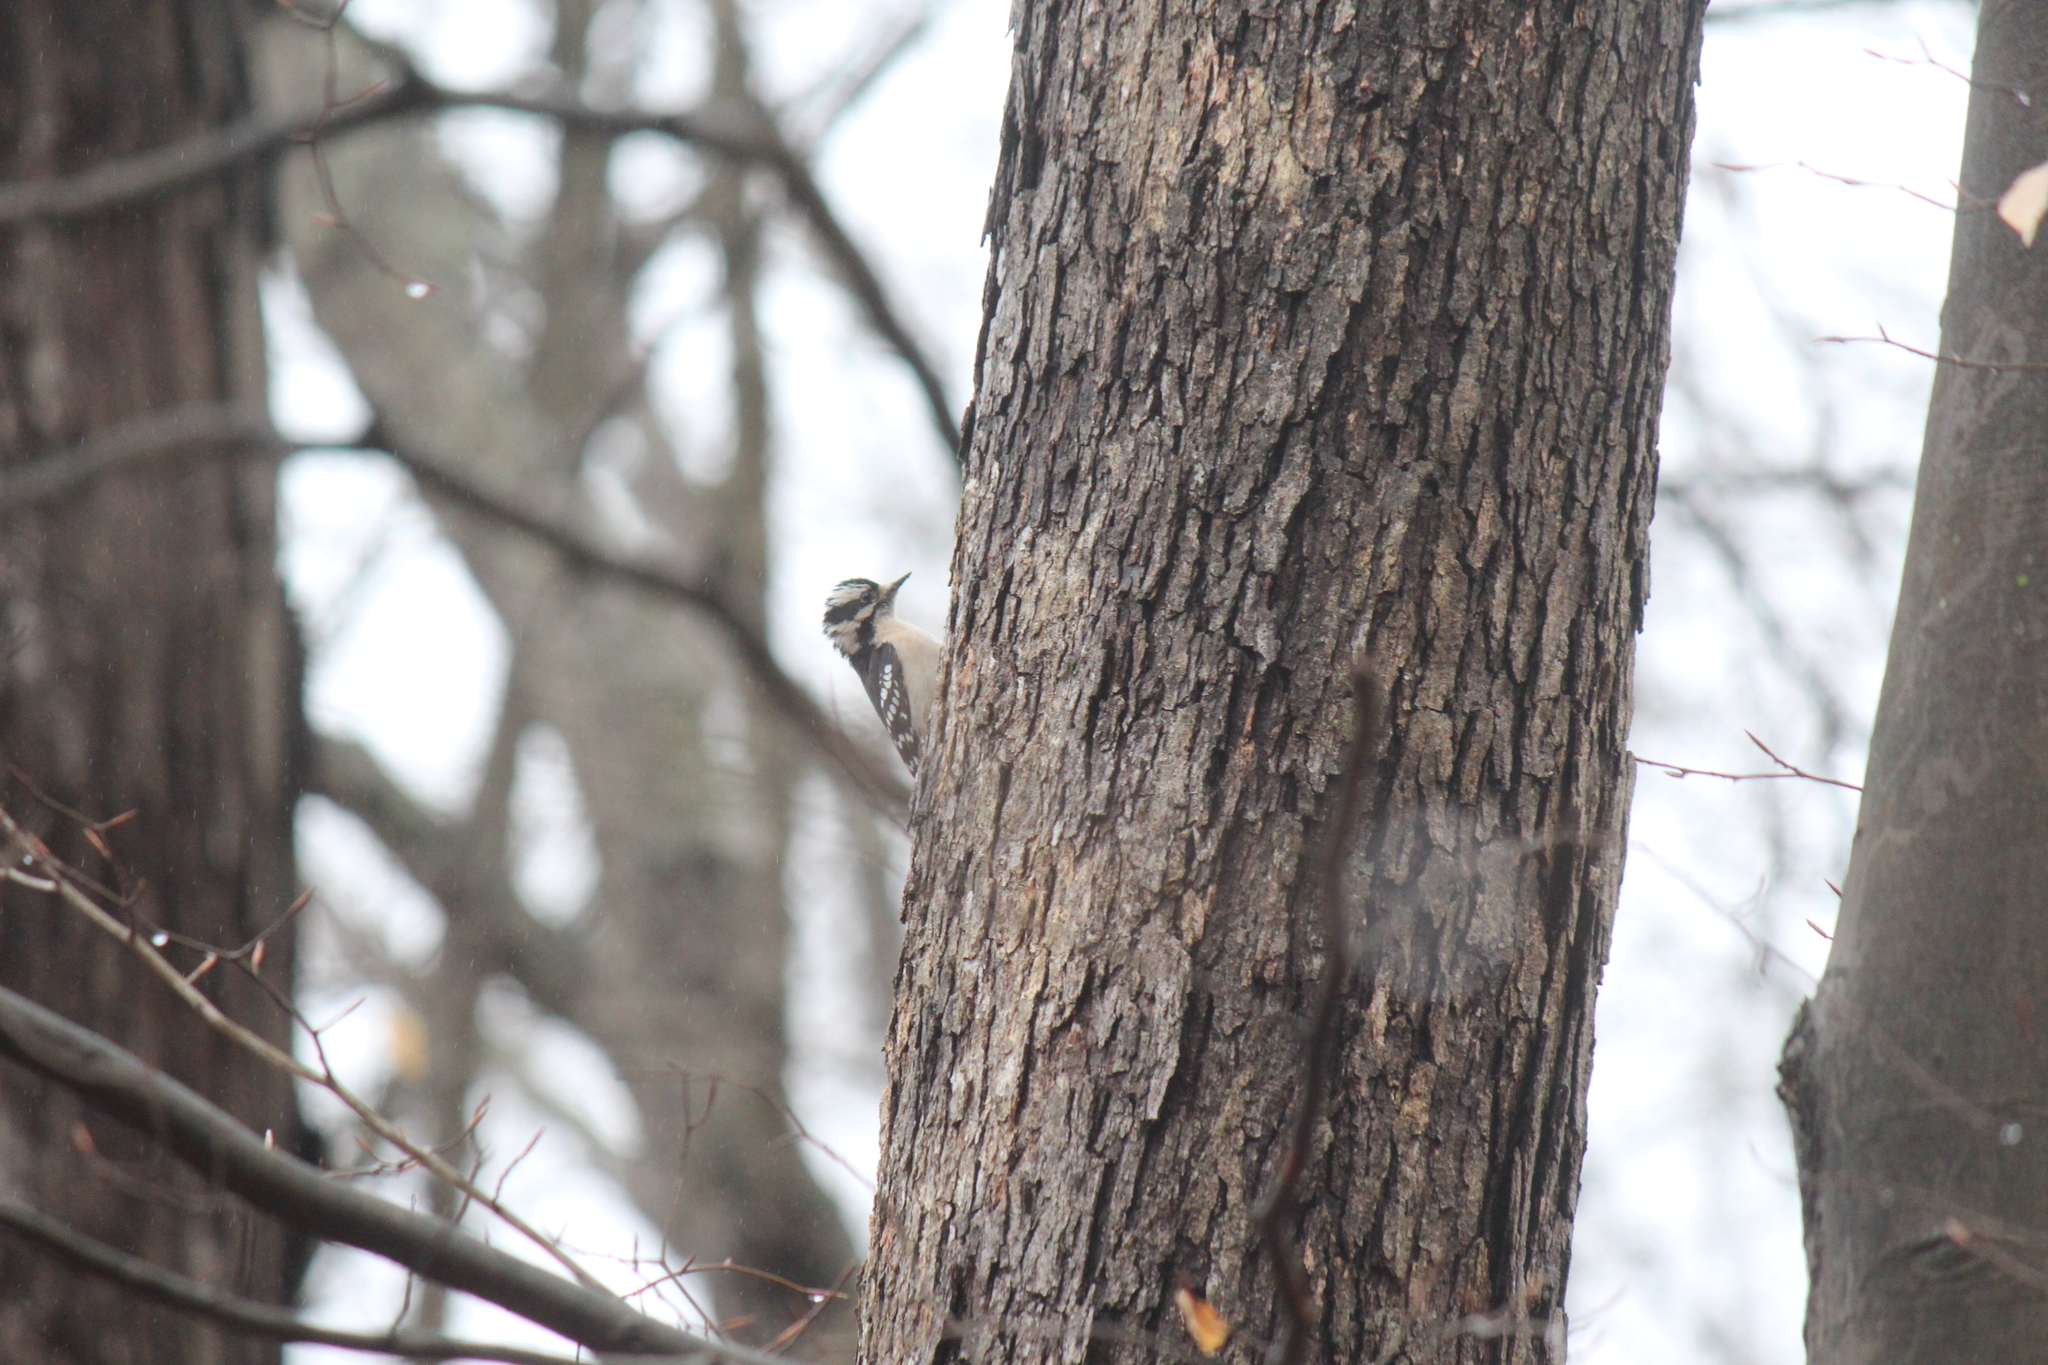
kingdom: Animalia
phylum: Chordata
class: Aves
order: Piciformes
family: Picidae
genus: Dryobates
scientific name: Dryobates pubescens
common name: Downy woodpecker
